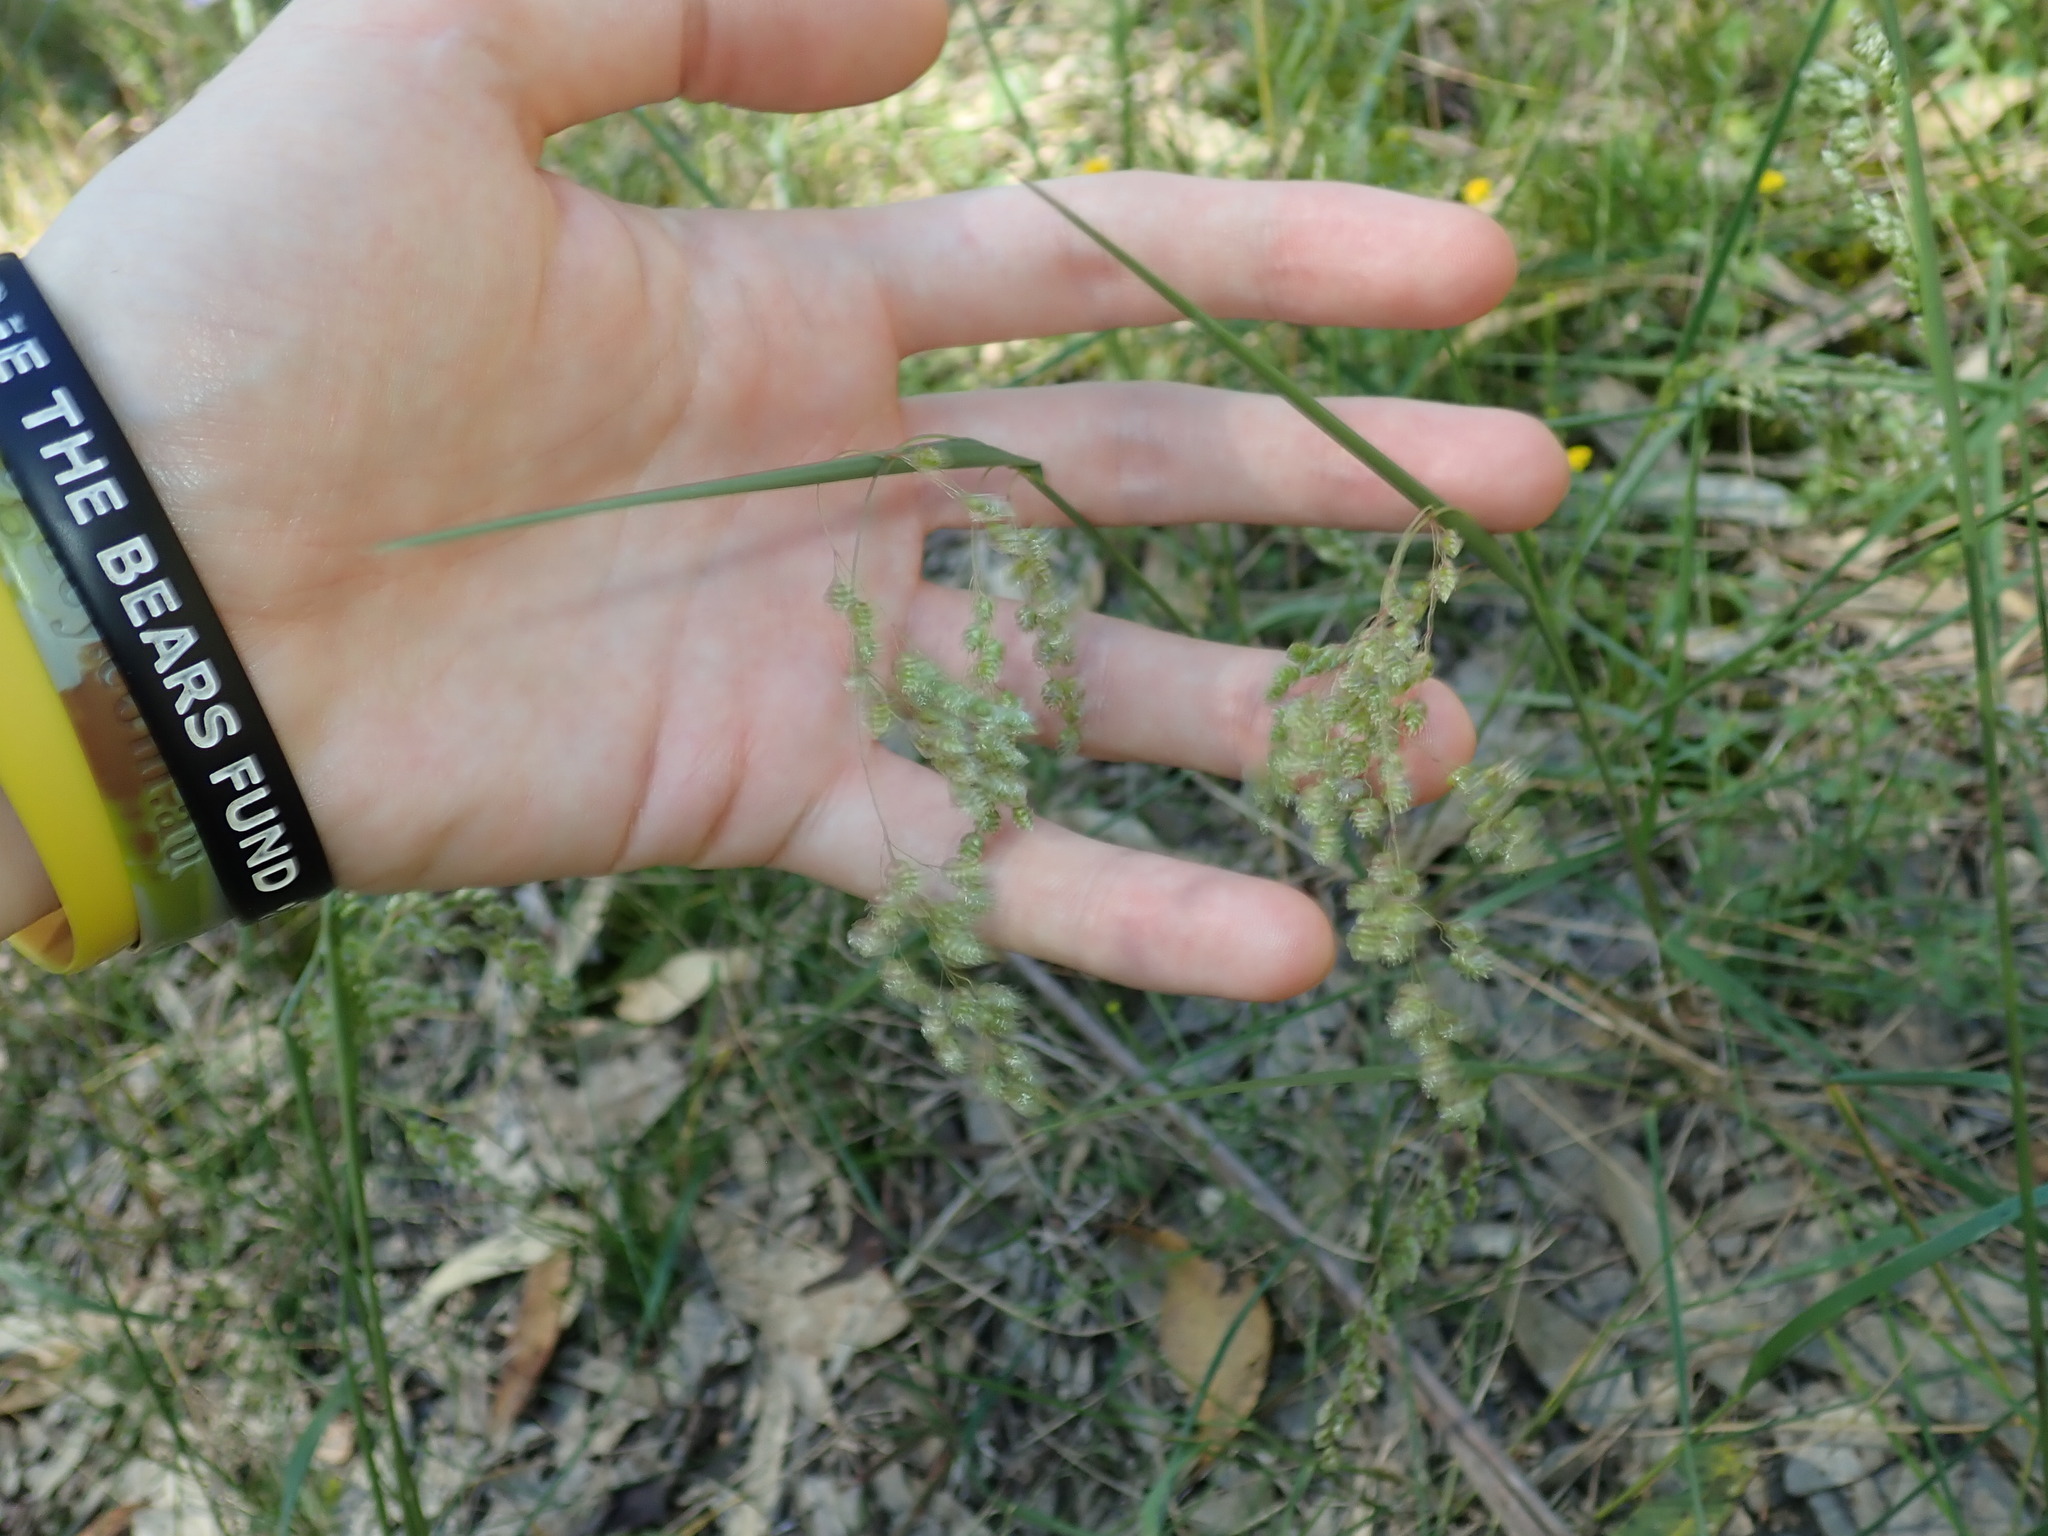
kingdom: Plantae
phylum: Tracheophyta
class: Liliopsida
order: Poales
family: Poaceae
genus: Chascolytrum
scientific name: Chascolytrum subaristatum
